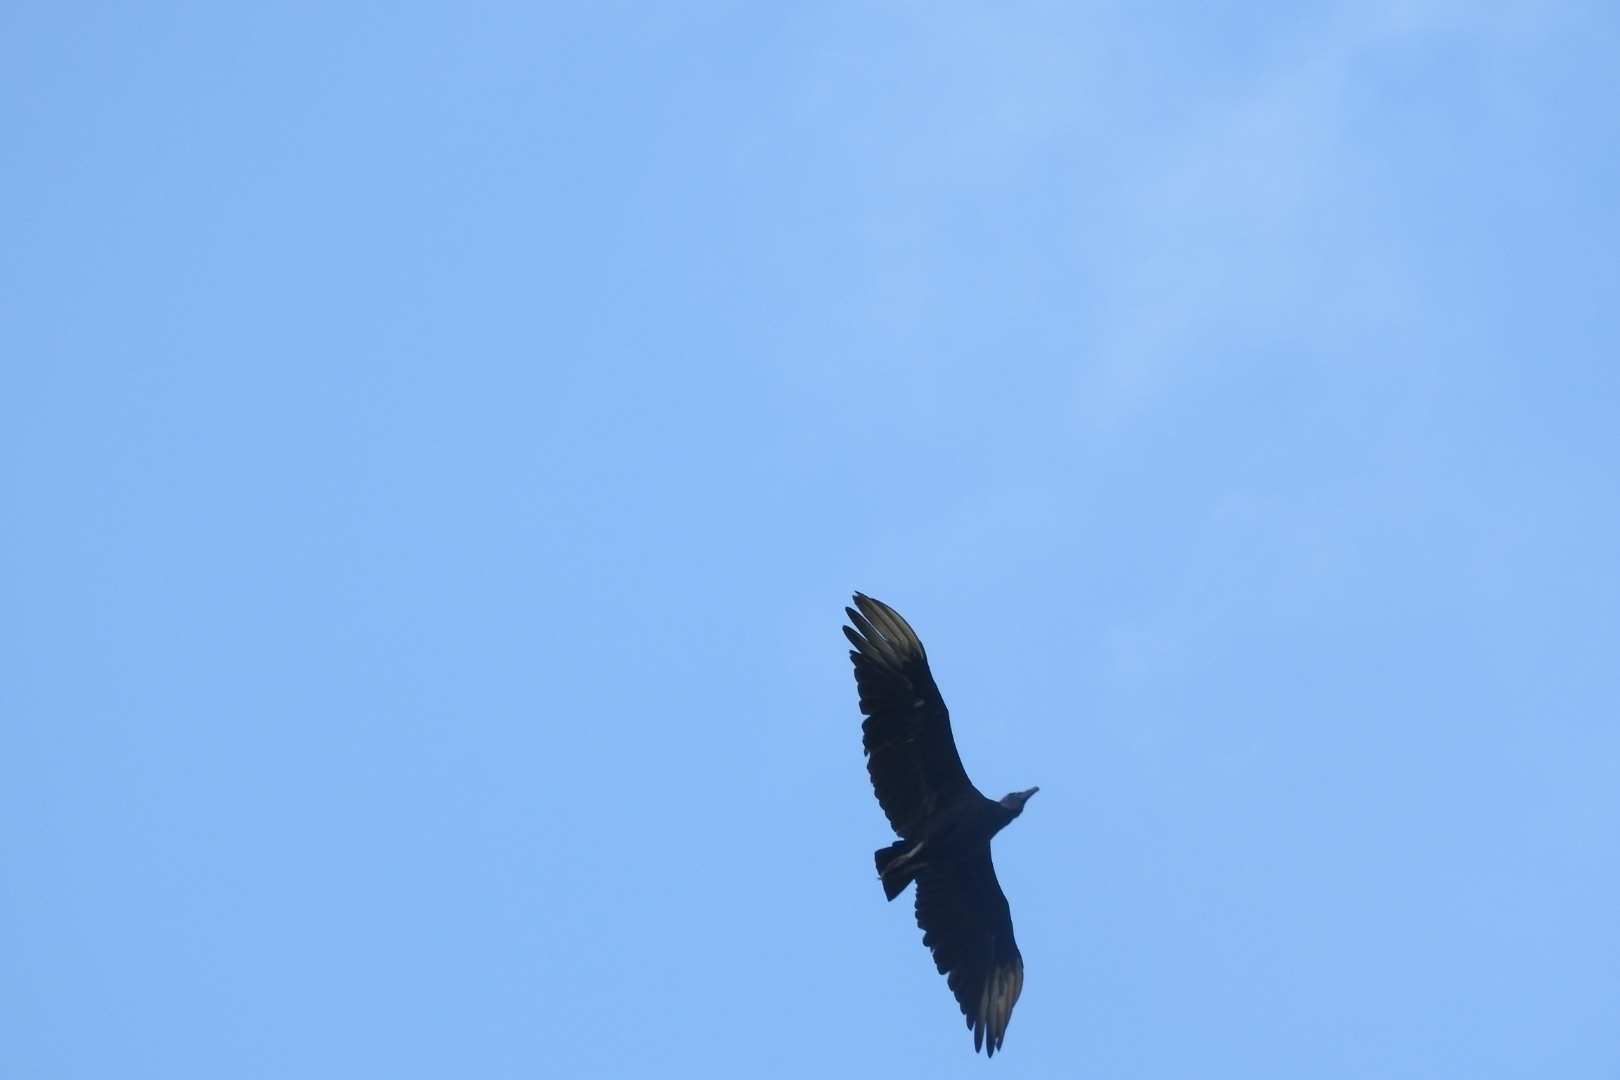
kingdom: Animalia
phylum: Chordata
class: Aves
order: Accipitriformes
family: Cathartidae
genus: Coragyps
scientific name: Coragyps atratus
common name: Black vulture
